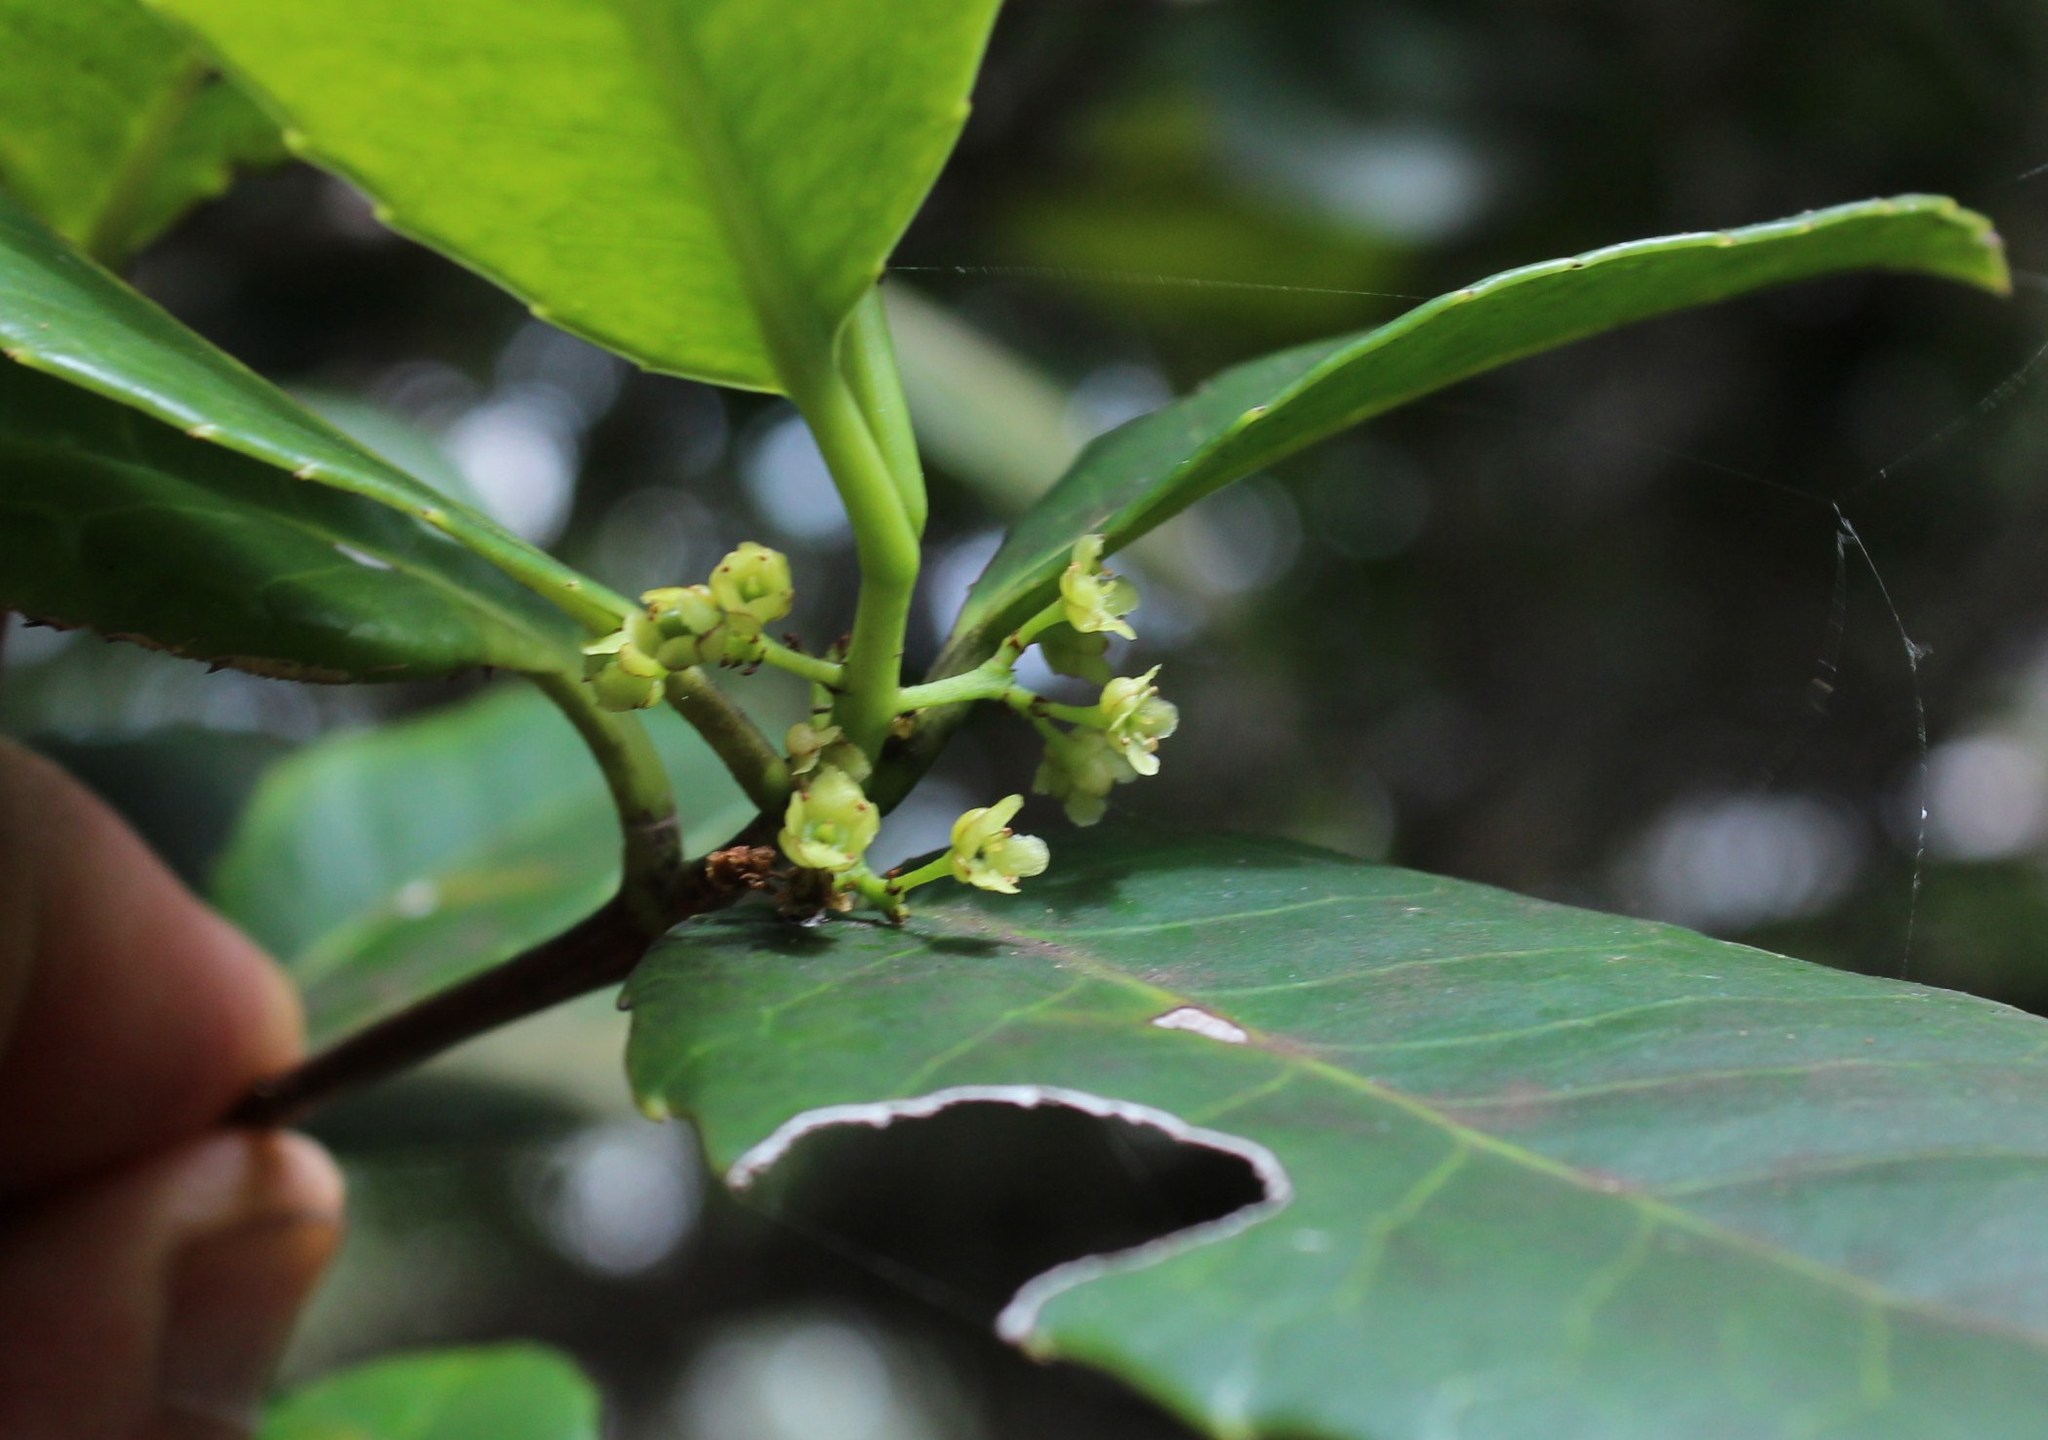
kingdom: Plantae
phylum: Tracheophyta
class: Magnoliopsida
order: Celastrales
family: Celastraceae
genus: Elaeodendron
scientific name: Elaeodendron croceum
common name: Saffron
